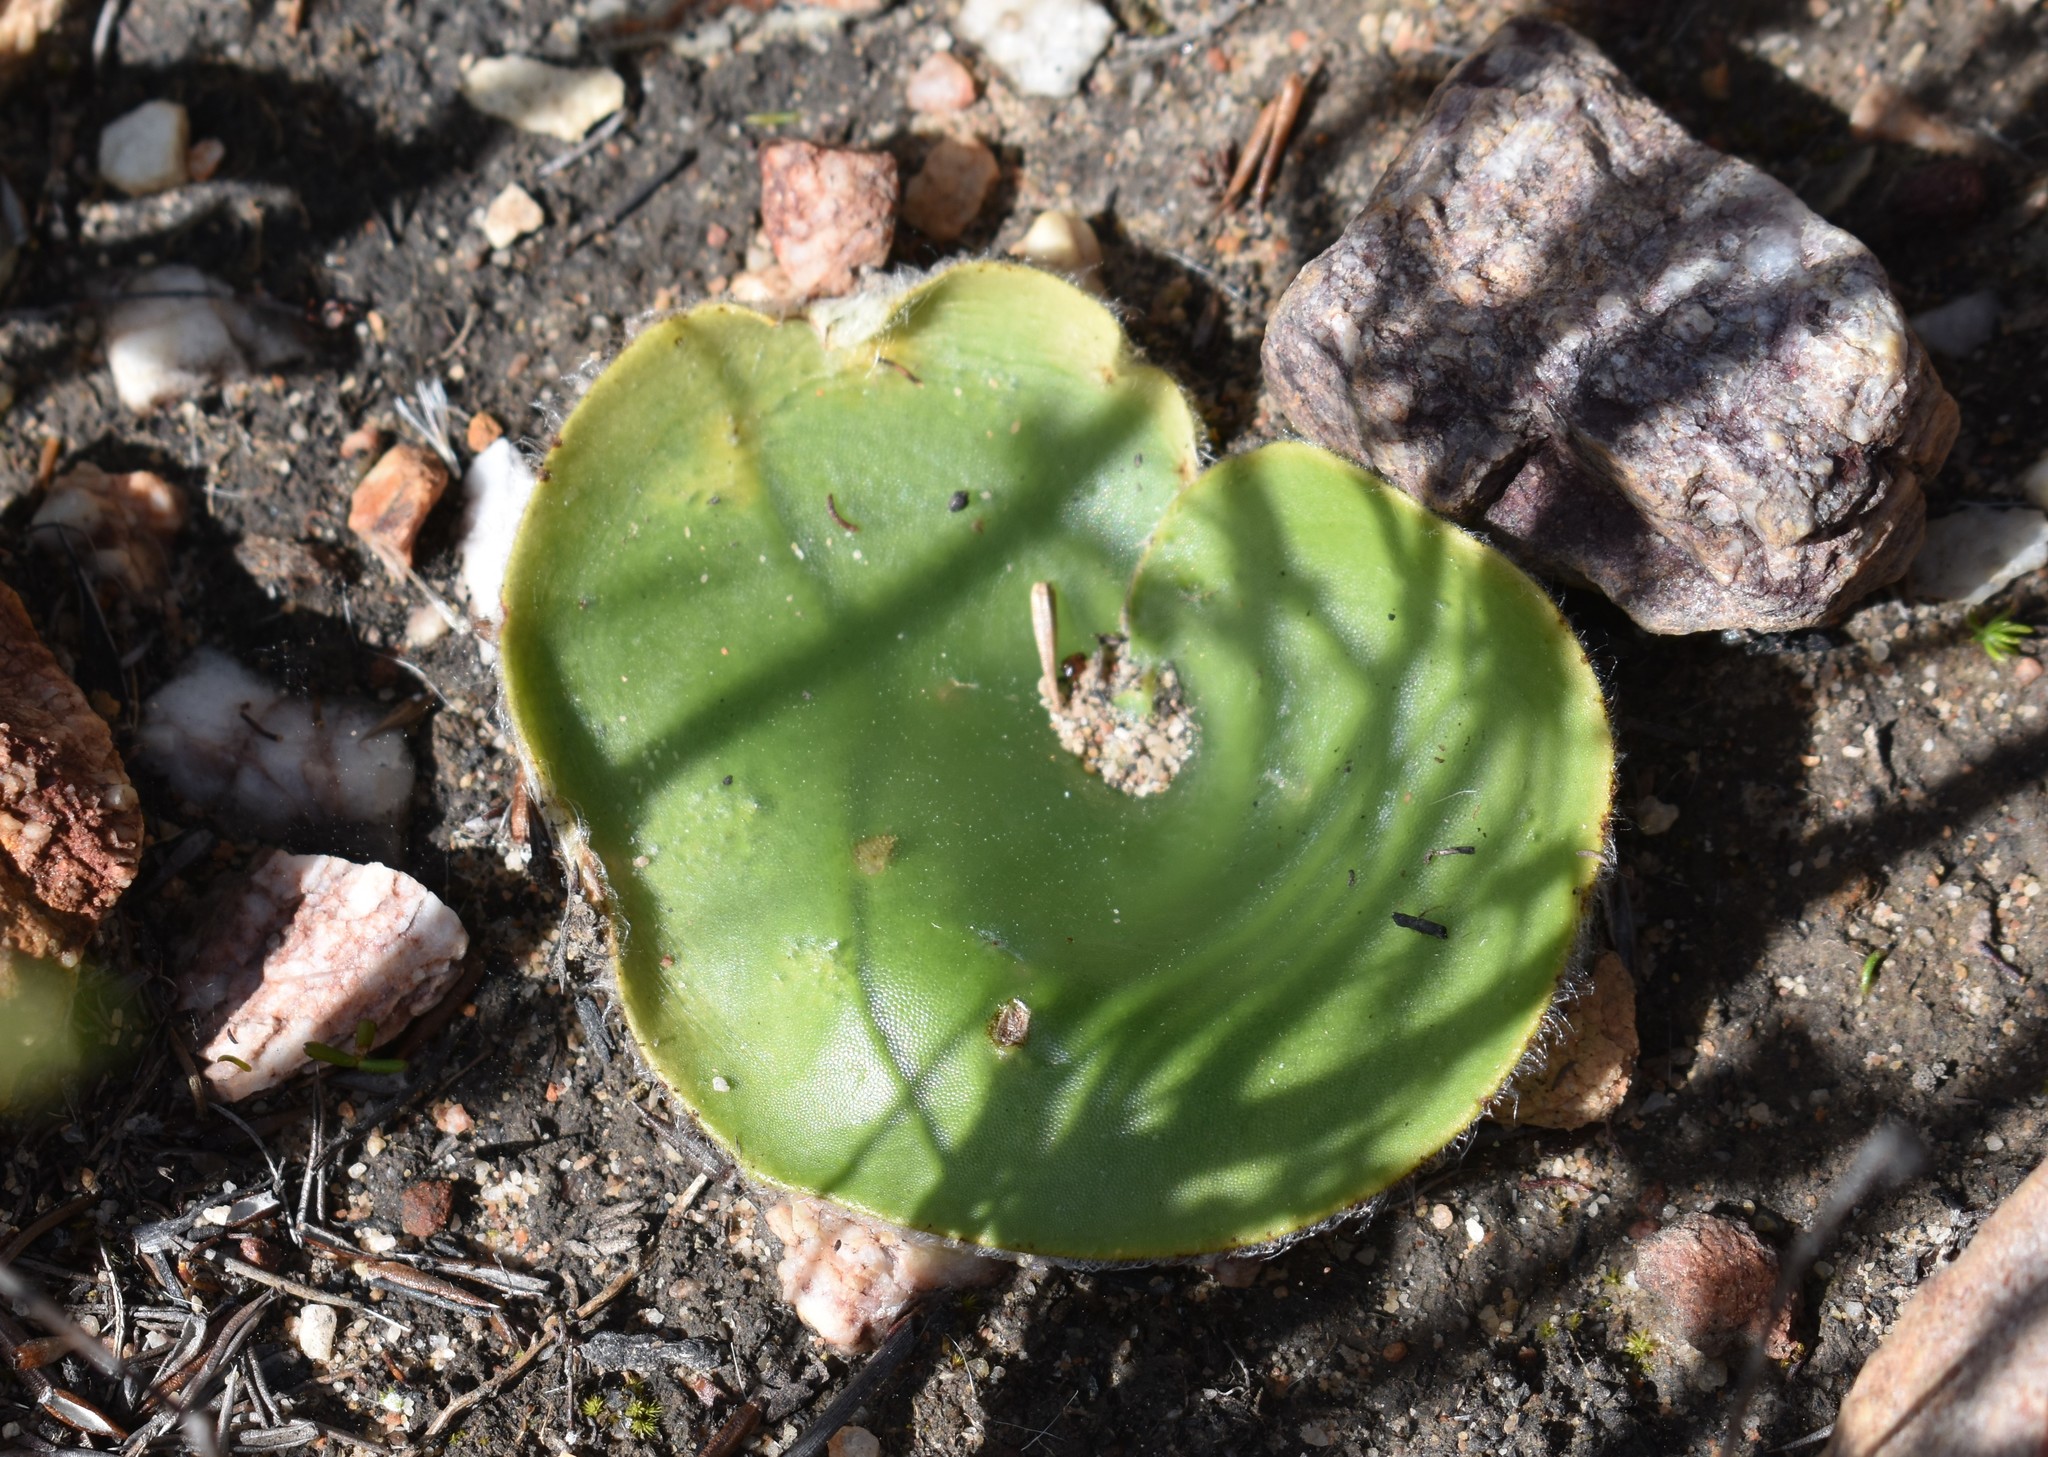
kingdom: Plantae
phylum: Tracheophyta
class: Liliopsida
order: Asparagales
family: Orchidaceae
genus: Holothrix
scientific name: Holothrix pilosa
